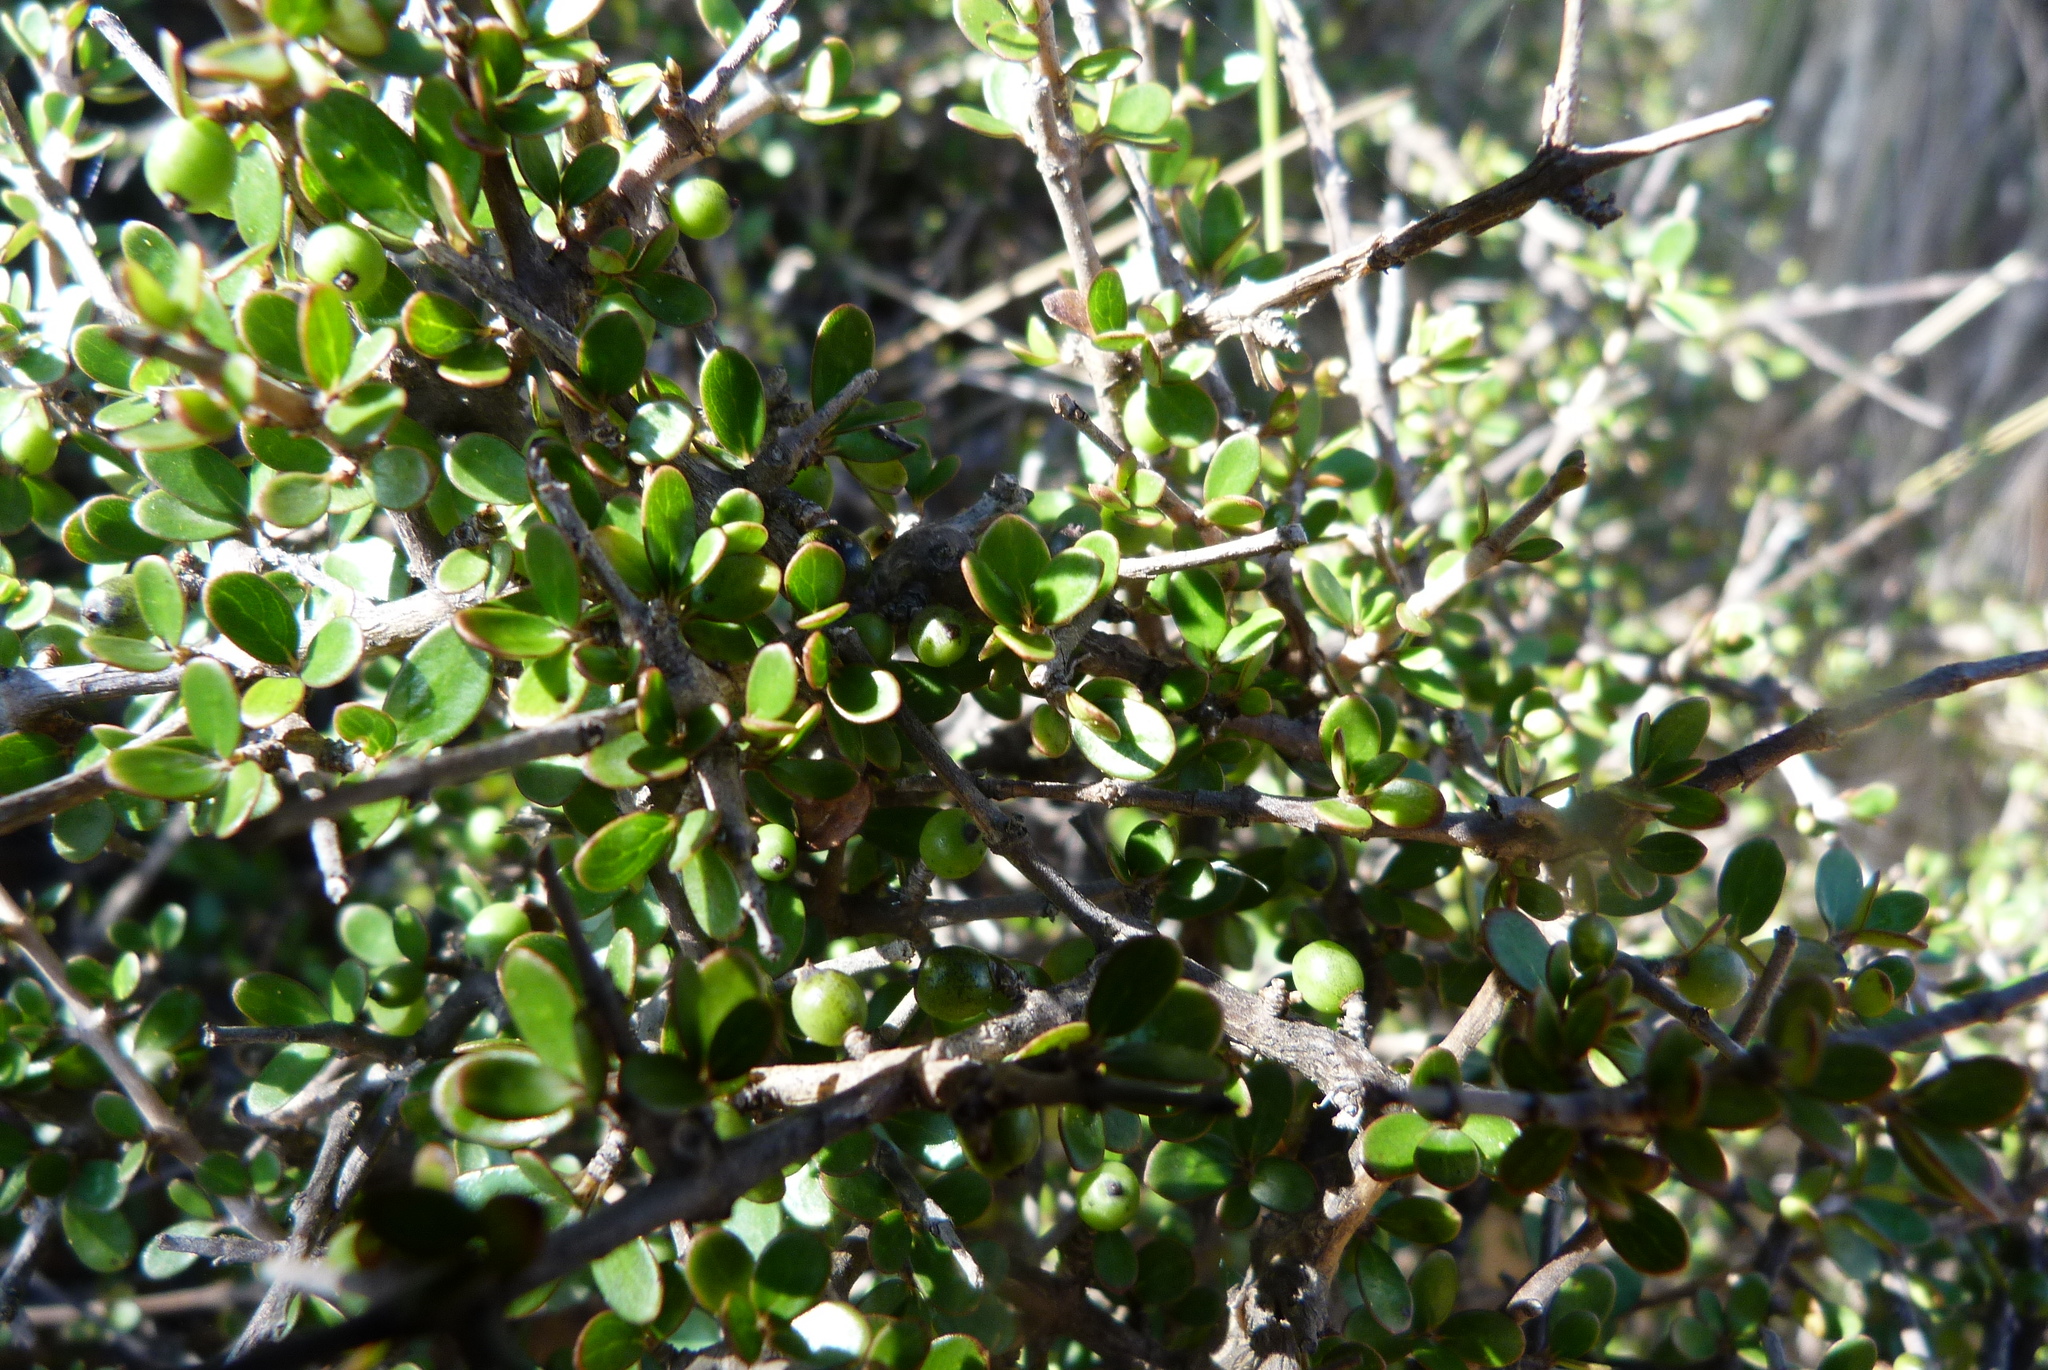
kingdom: Plantae
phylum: Tracheophyta
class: Magnoliopsida
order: Gentianales
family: Rubiaceae
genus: Coprosma
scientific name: Coprosma propinqua
